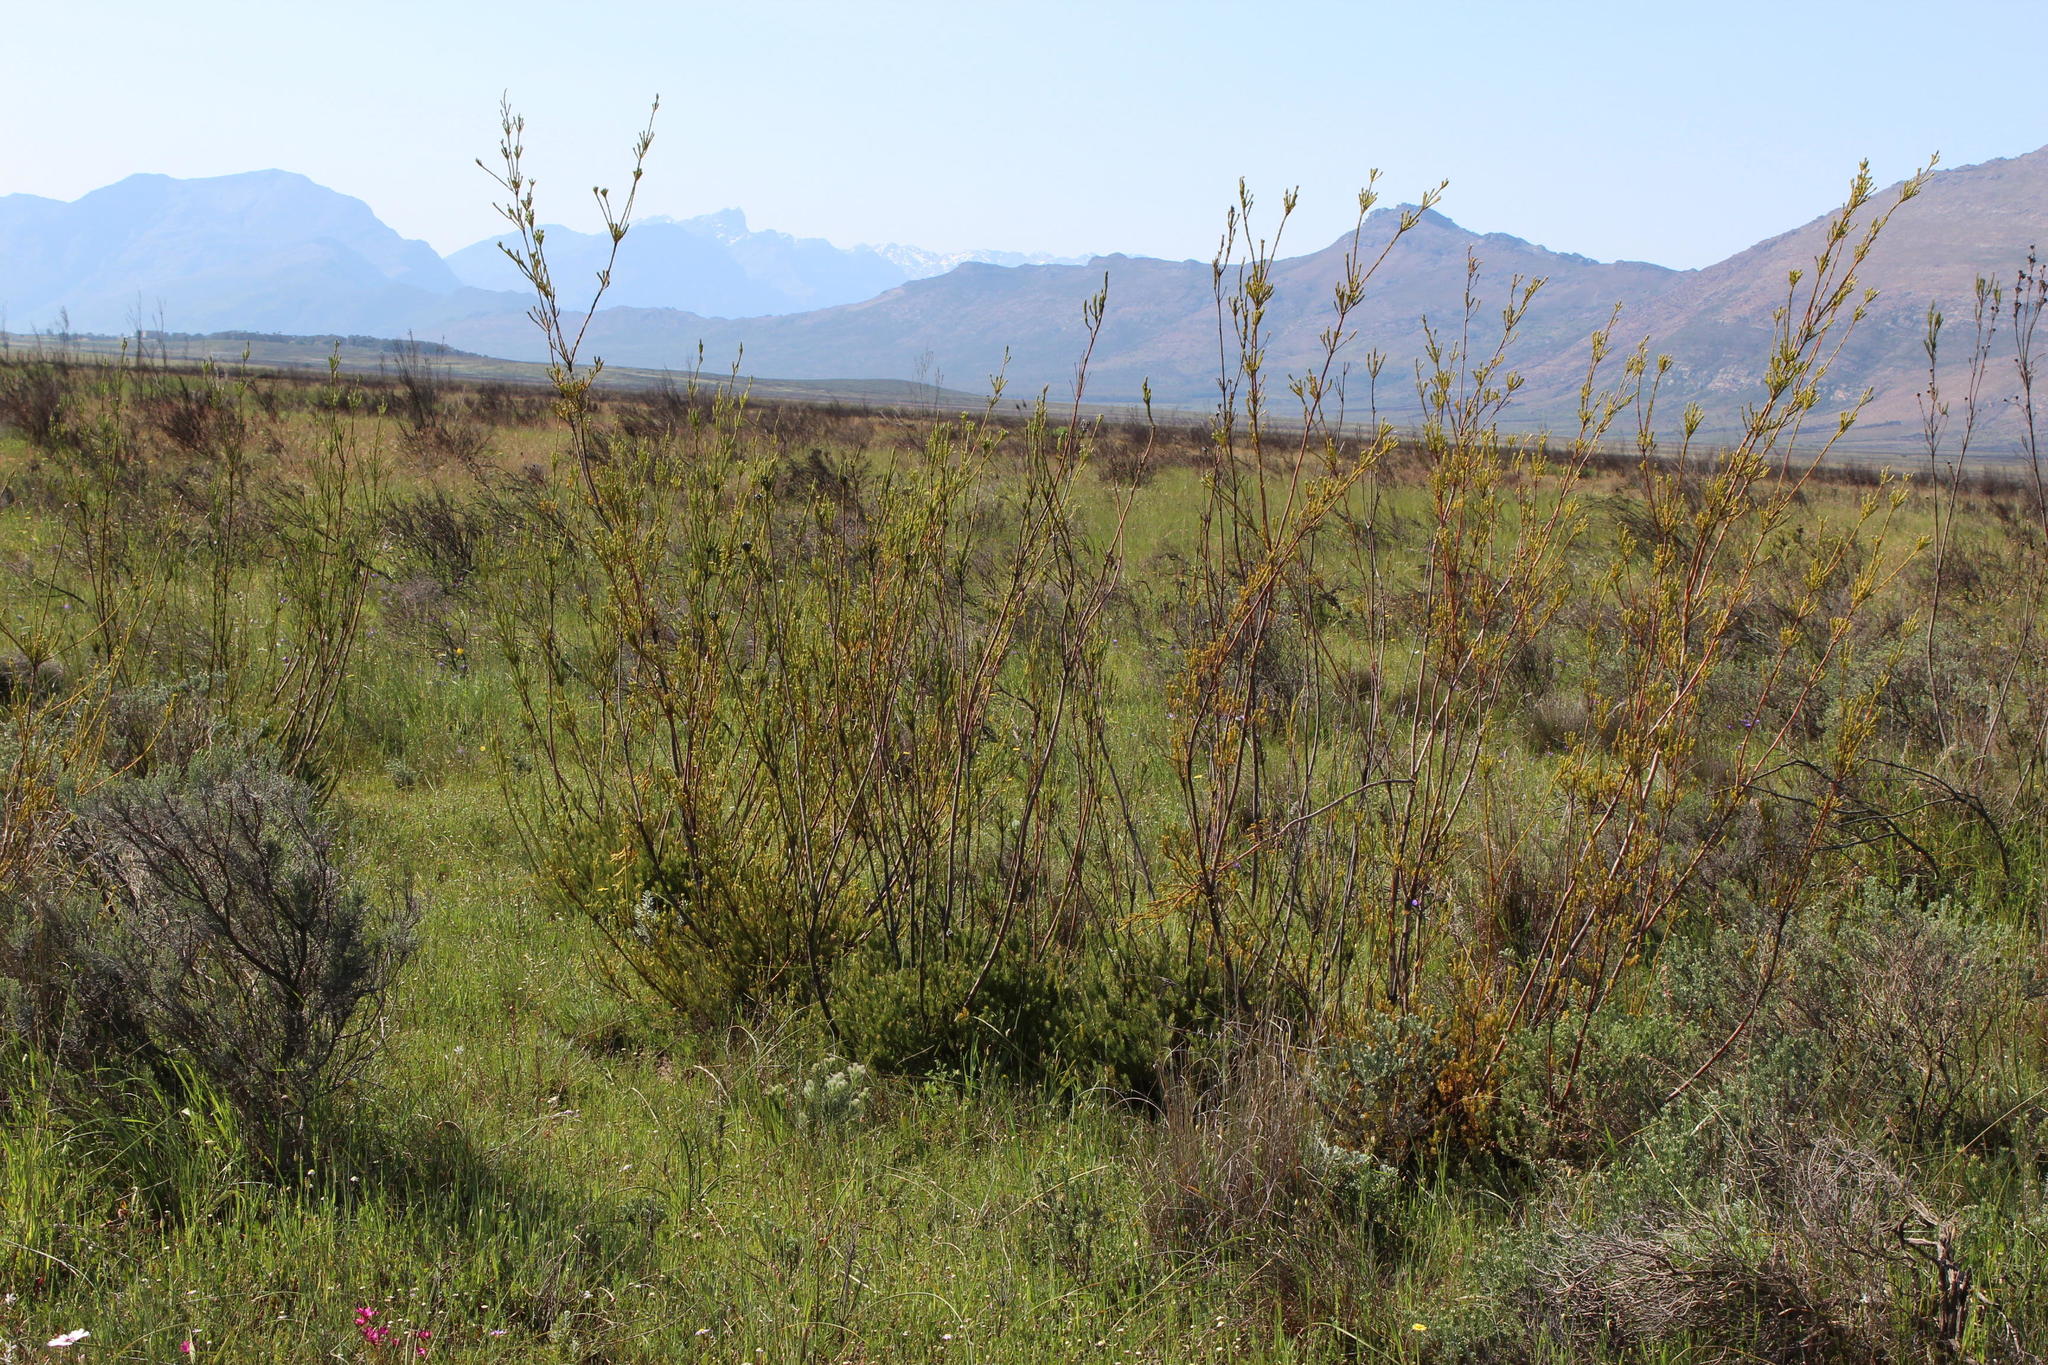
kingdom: Plantae
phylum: Tracheophyta
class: Magnoliopsida
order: Proteales
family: Proteaceae
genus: Leucadendron
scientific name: Leucadendron corymbosum
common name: Swartveld conebush
